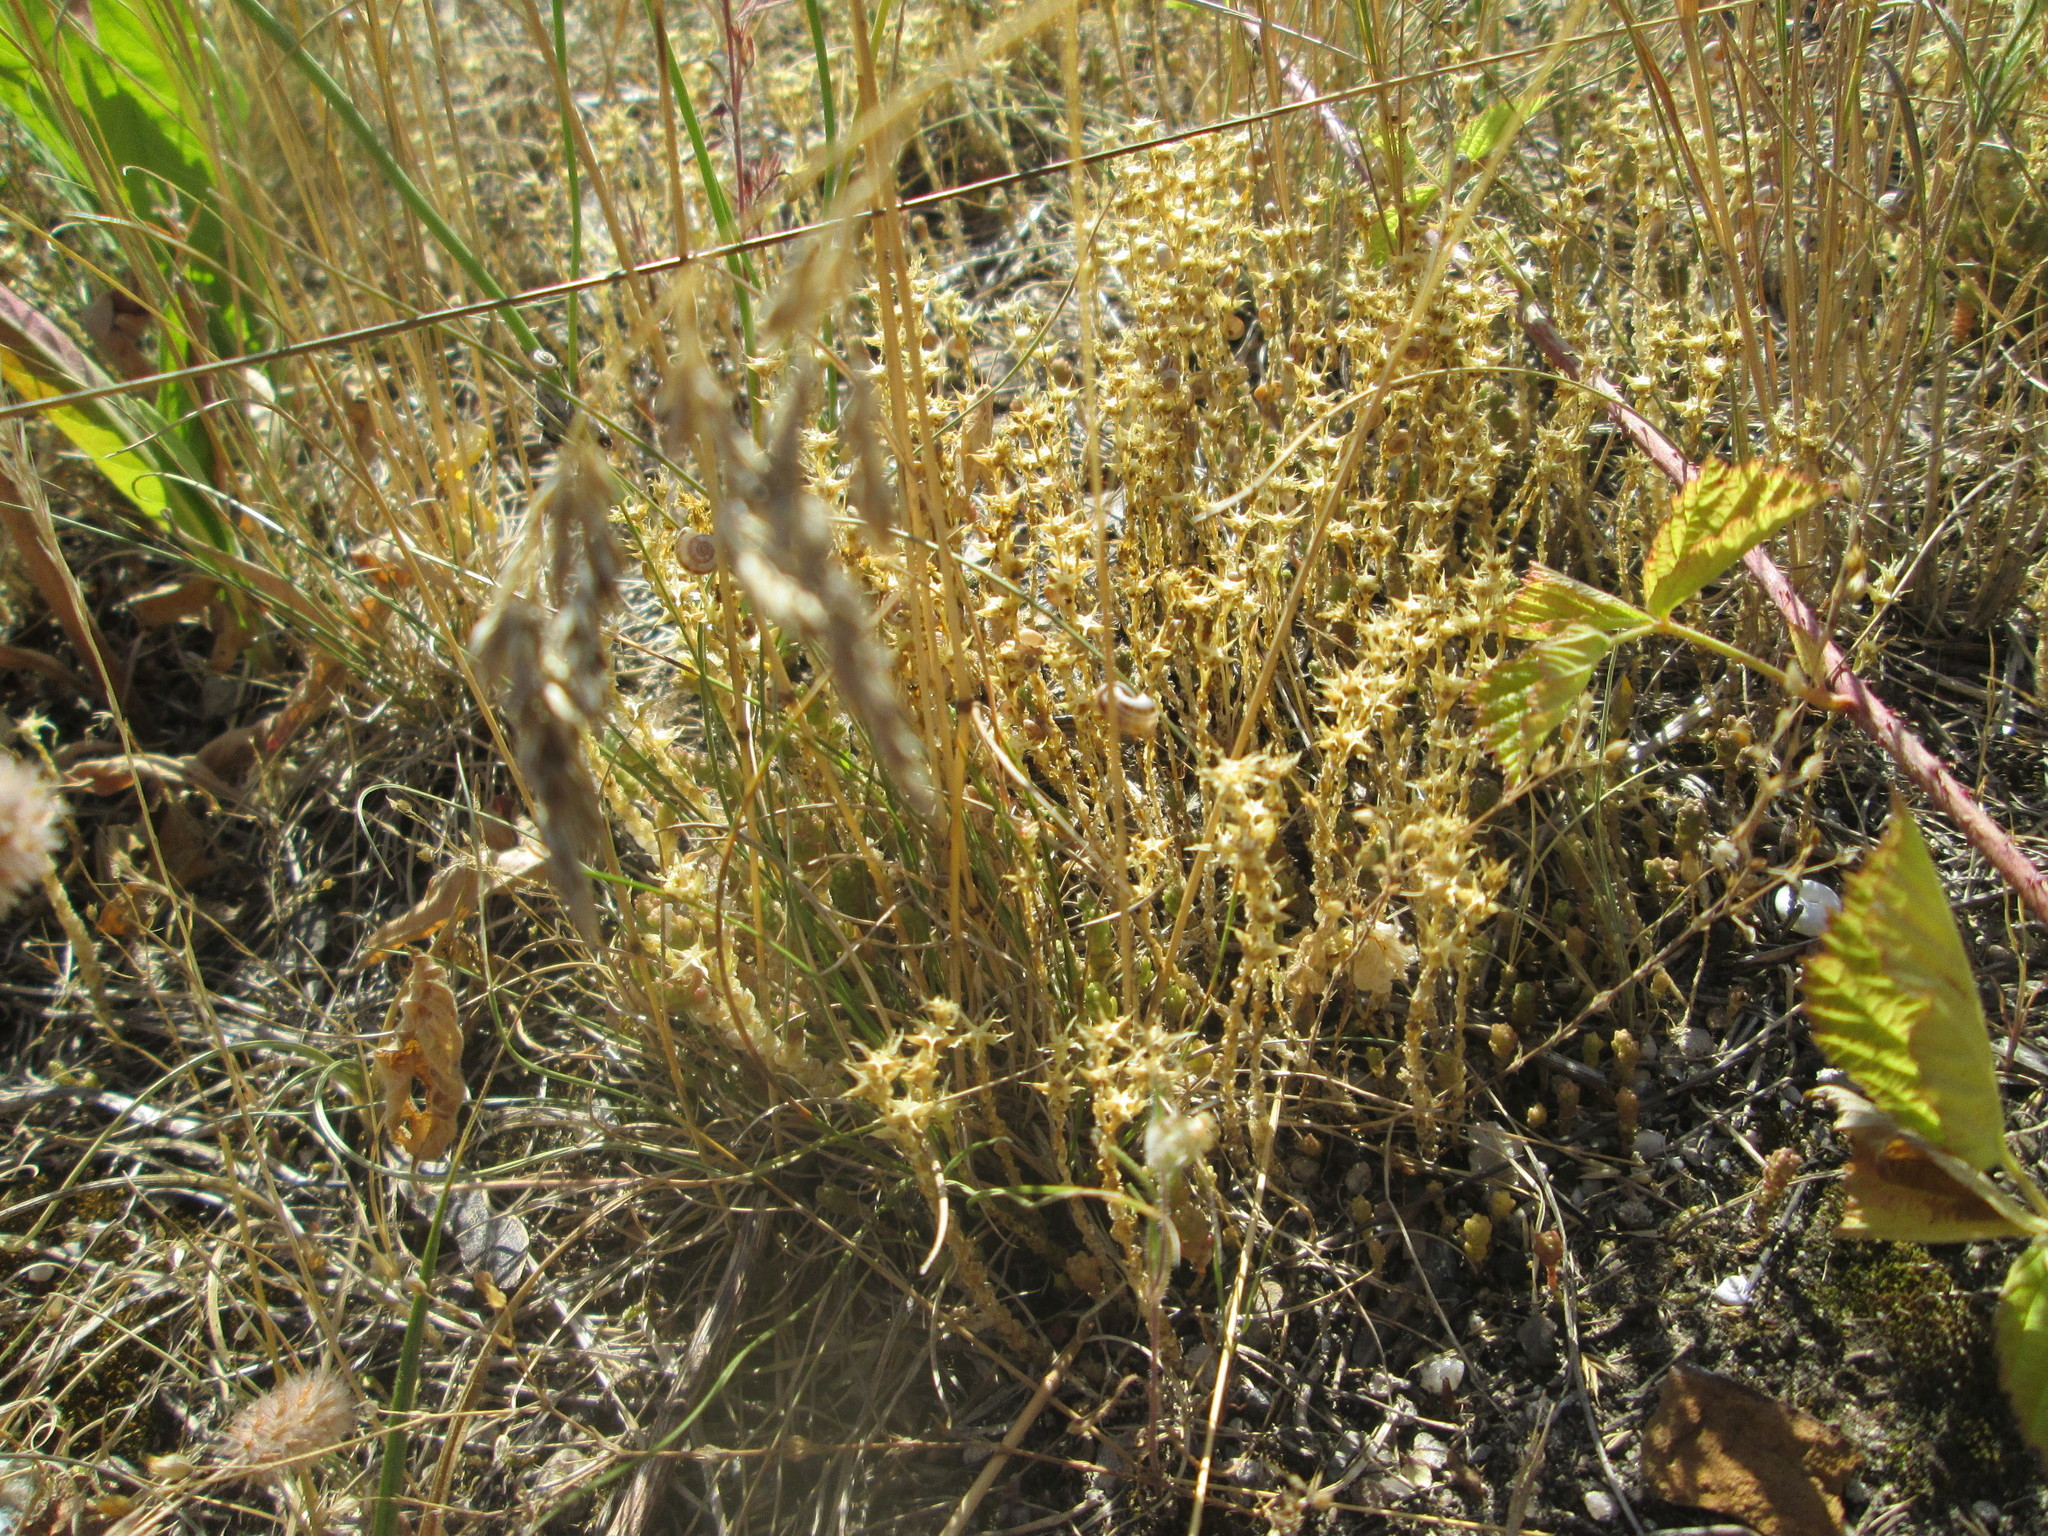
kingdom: Plantae
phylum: Tracheophyta
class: Magnoliopsida
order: Saxifragales
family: Crassulaceae
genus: Sedum
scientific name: Sedum acre
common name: Biting stonecrop
